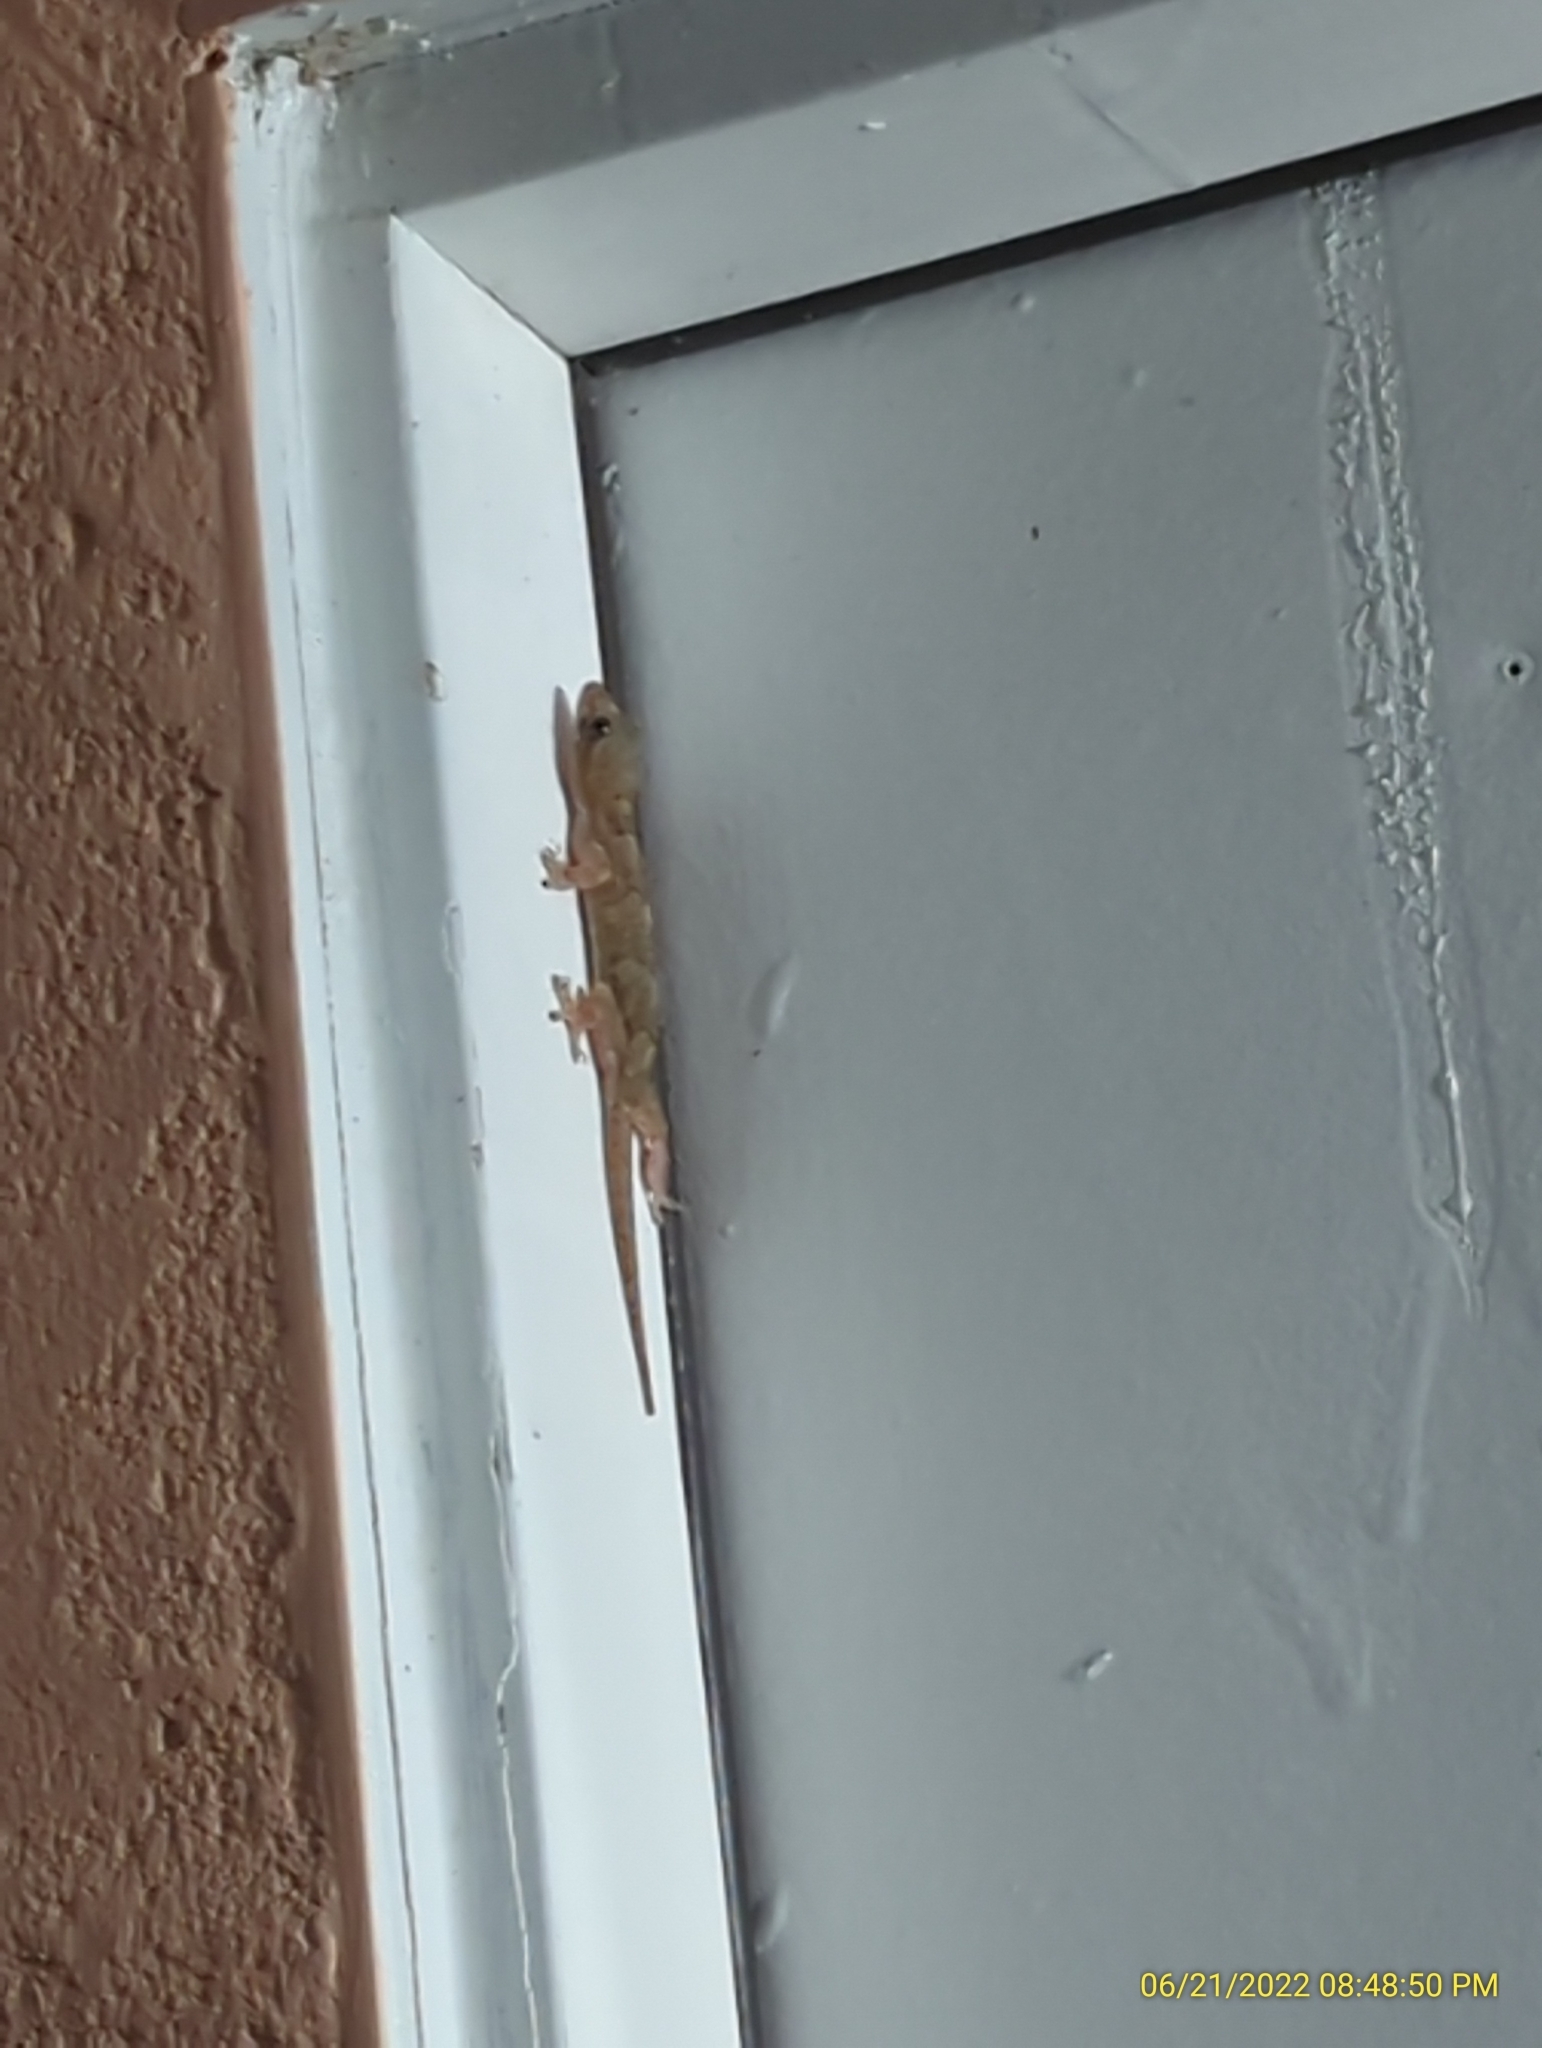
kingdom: Animalia
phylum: Chordata
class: Squamata
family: Gekkonidae
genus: Hemidactylus
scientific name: Hemidactylus mabouia
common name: House gecko
